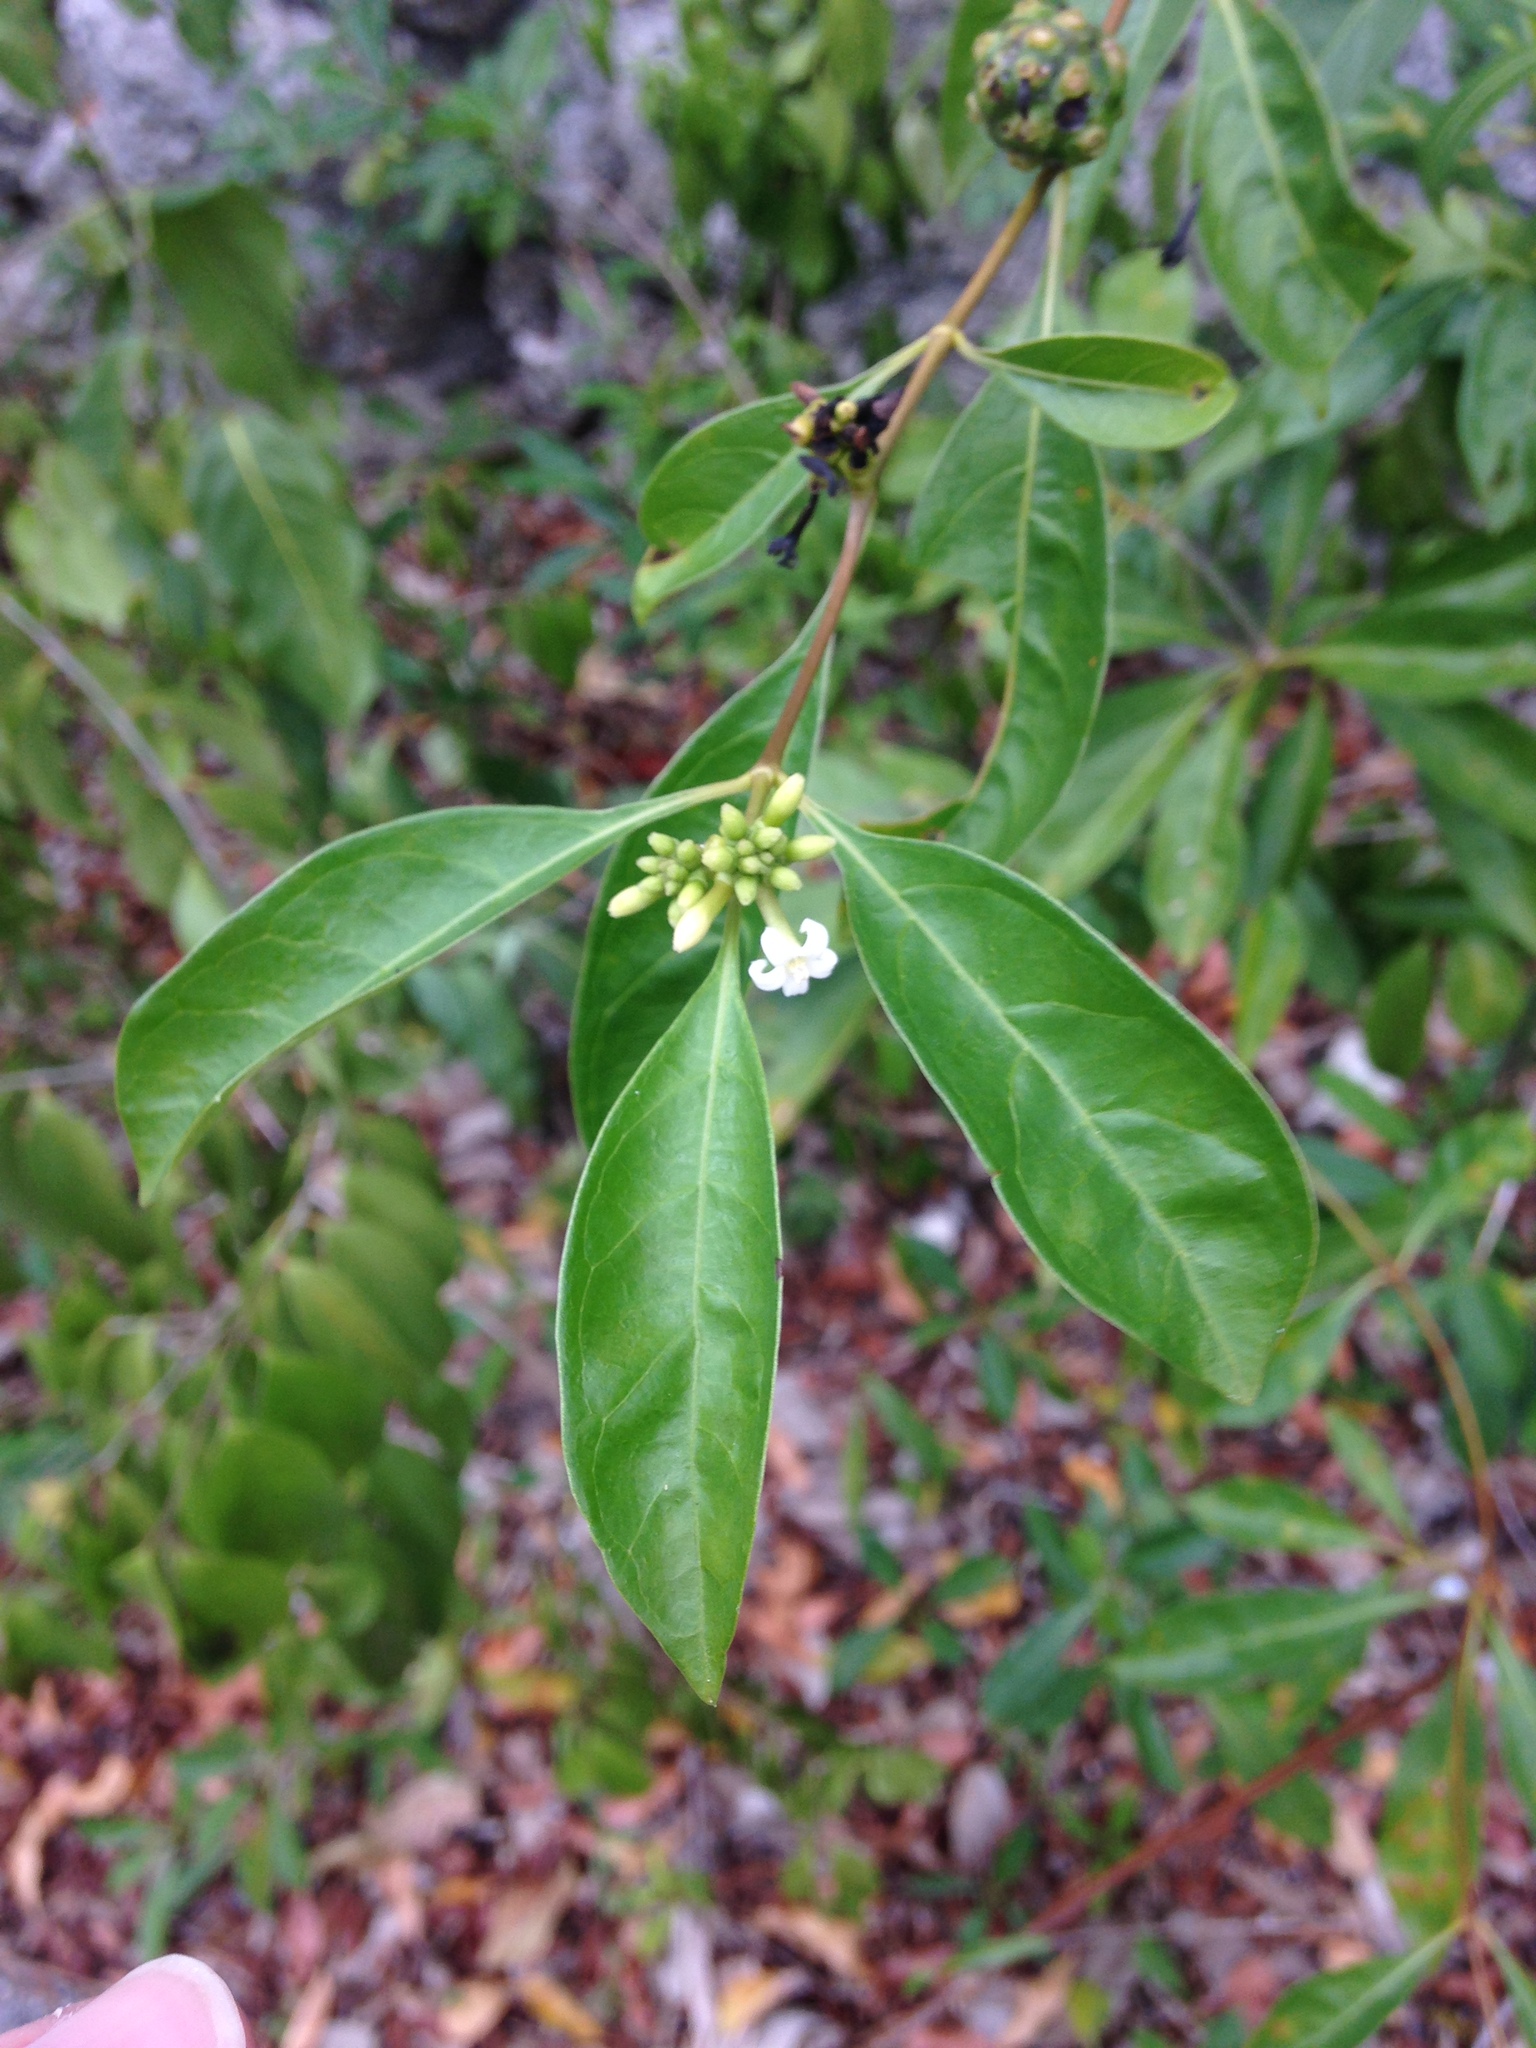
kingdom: Plantae
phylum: Tracheophyta
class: Magnoliopsida
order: Gentianales
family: Rubiaceae
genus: Morinda
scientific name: Morinda royoc
